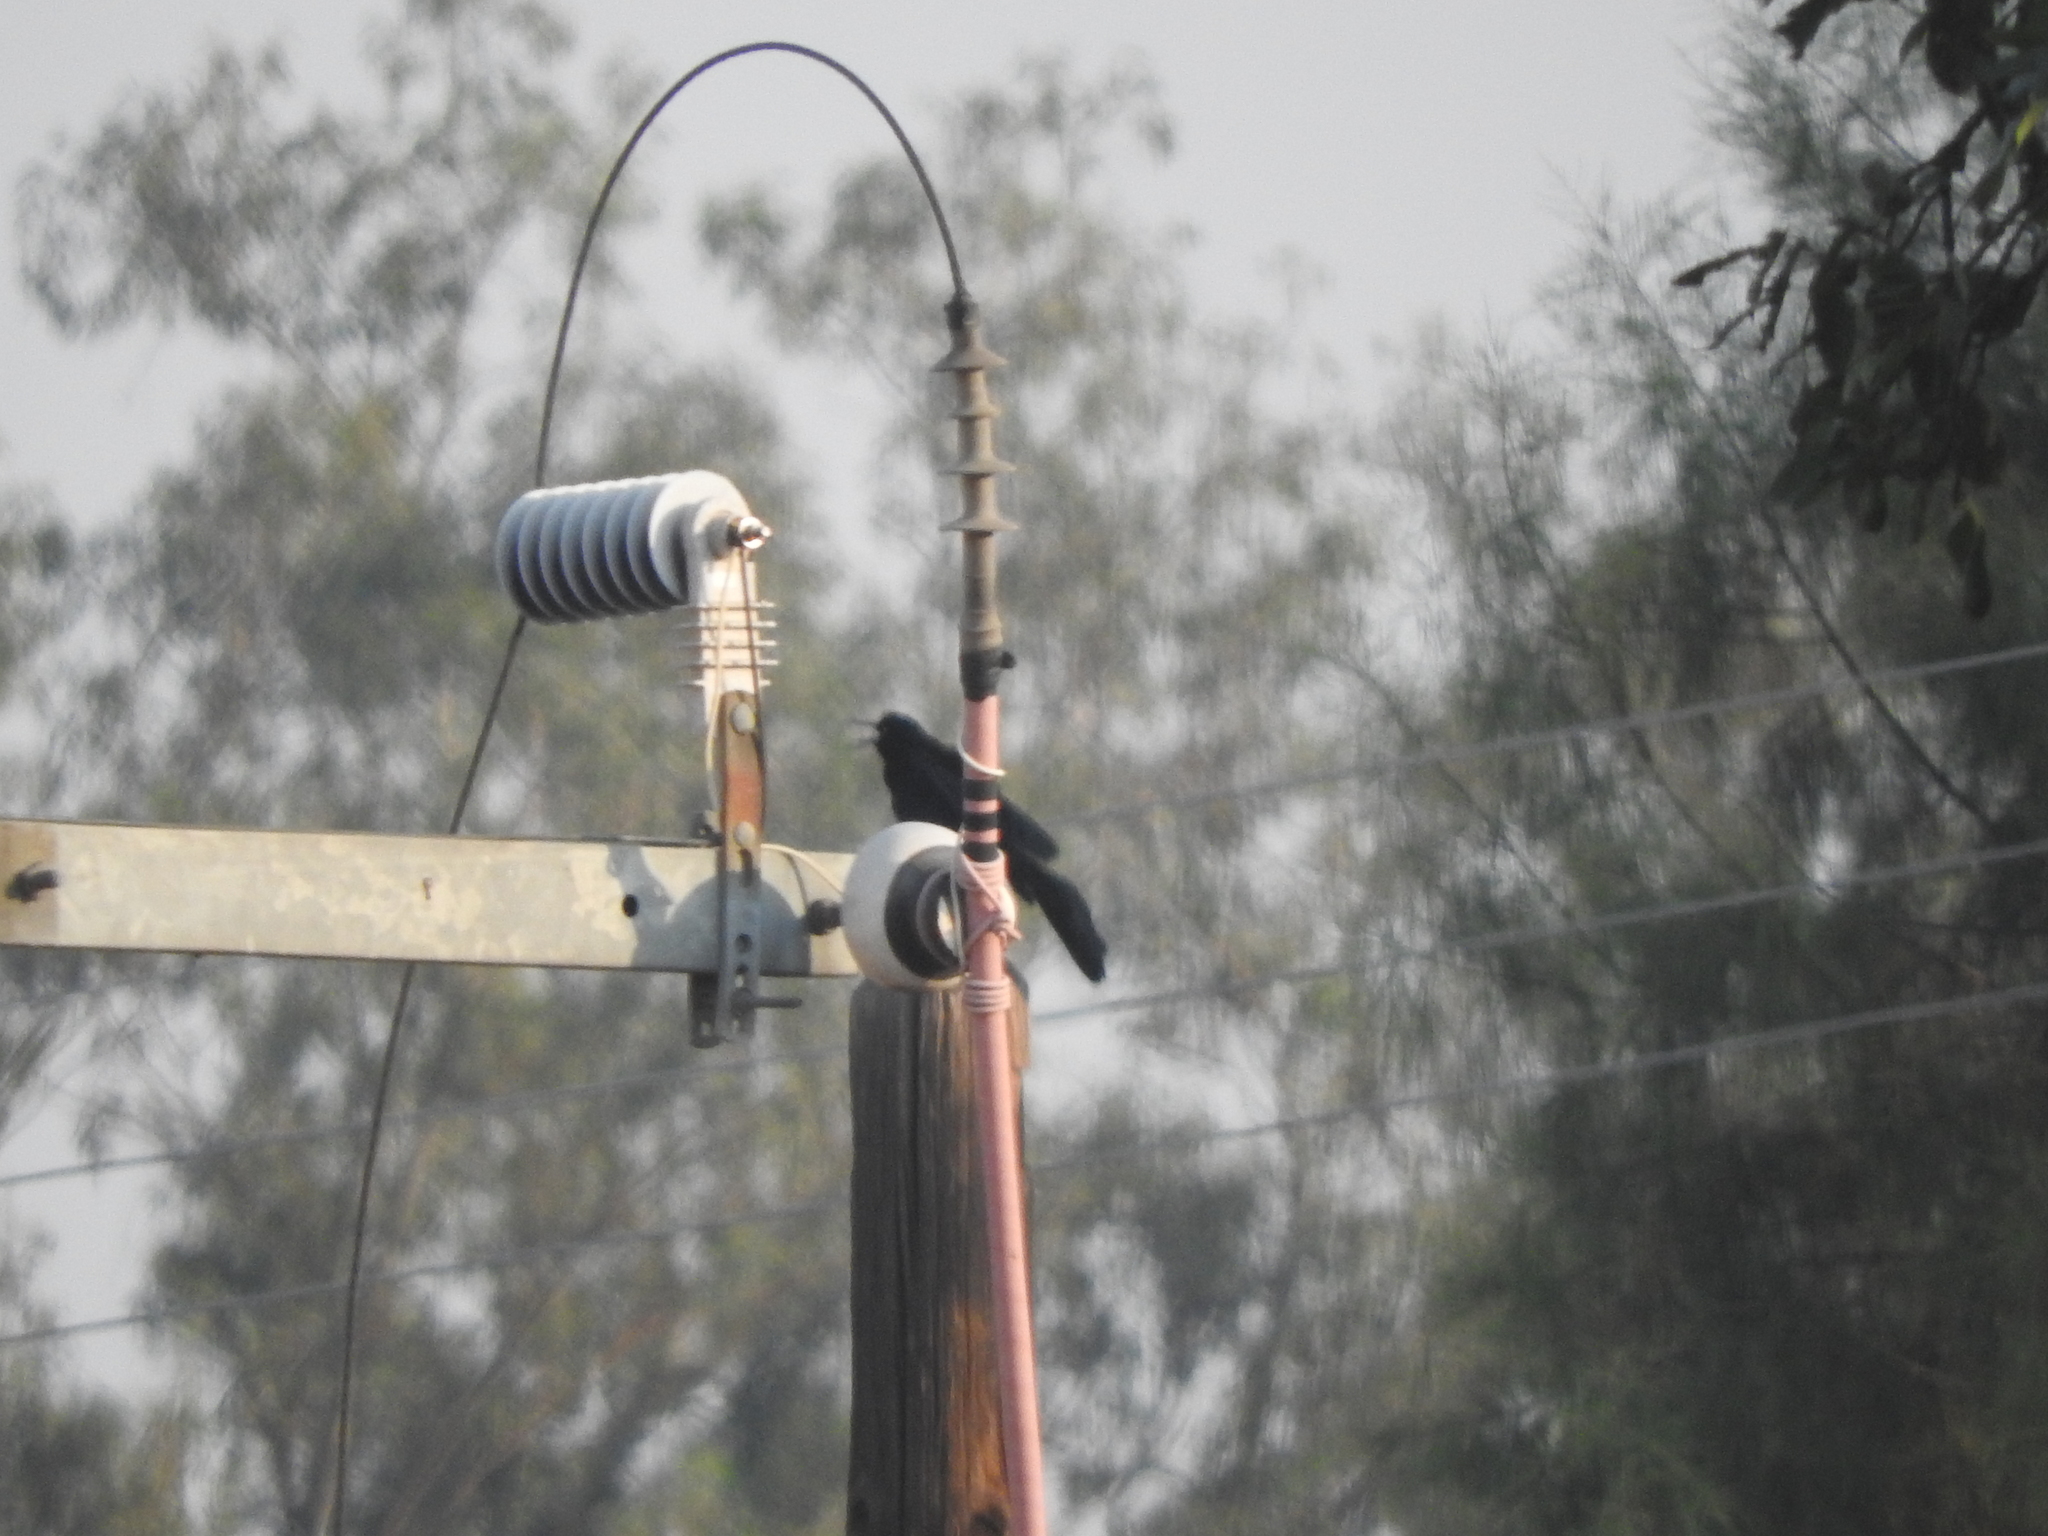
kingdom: Animalia
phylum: Chordata
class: Aves
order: Passeriformes
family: Icteridae
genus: Quiscalus
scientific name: Quiscalus mexicanus
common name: Great-tailed grackle
